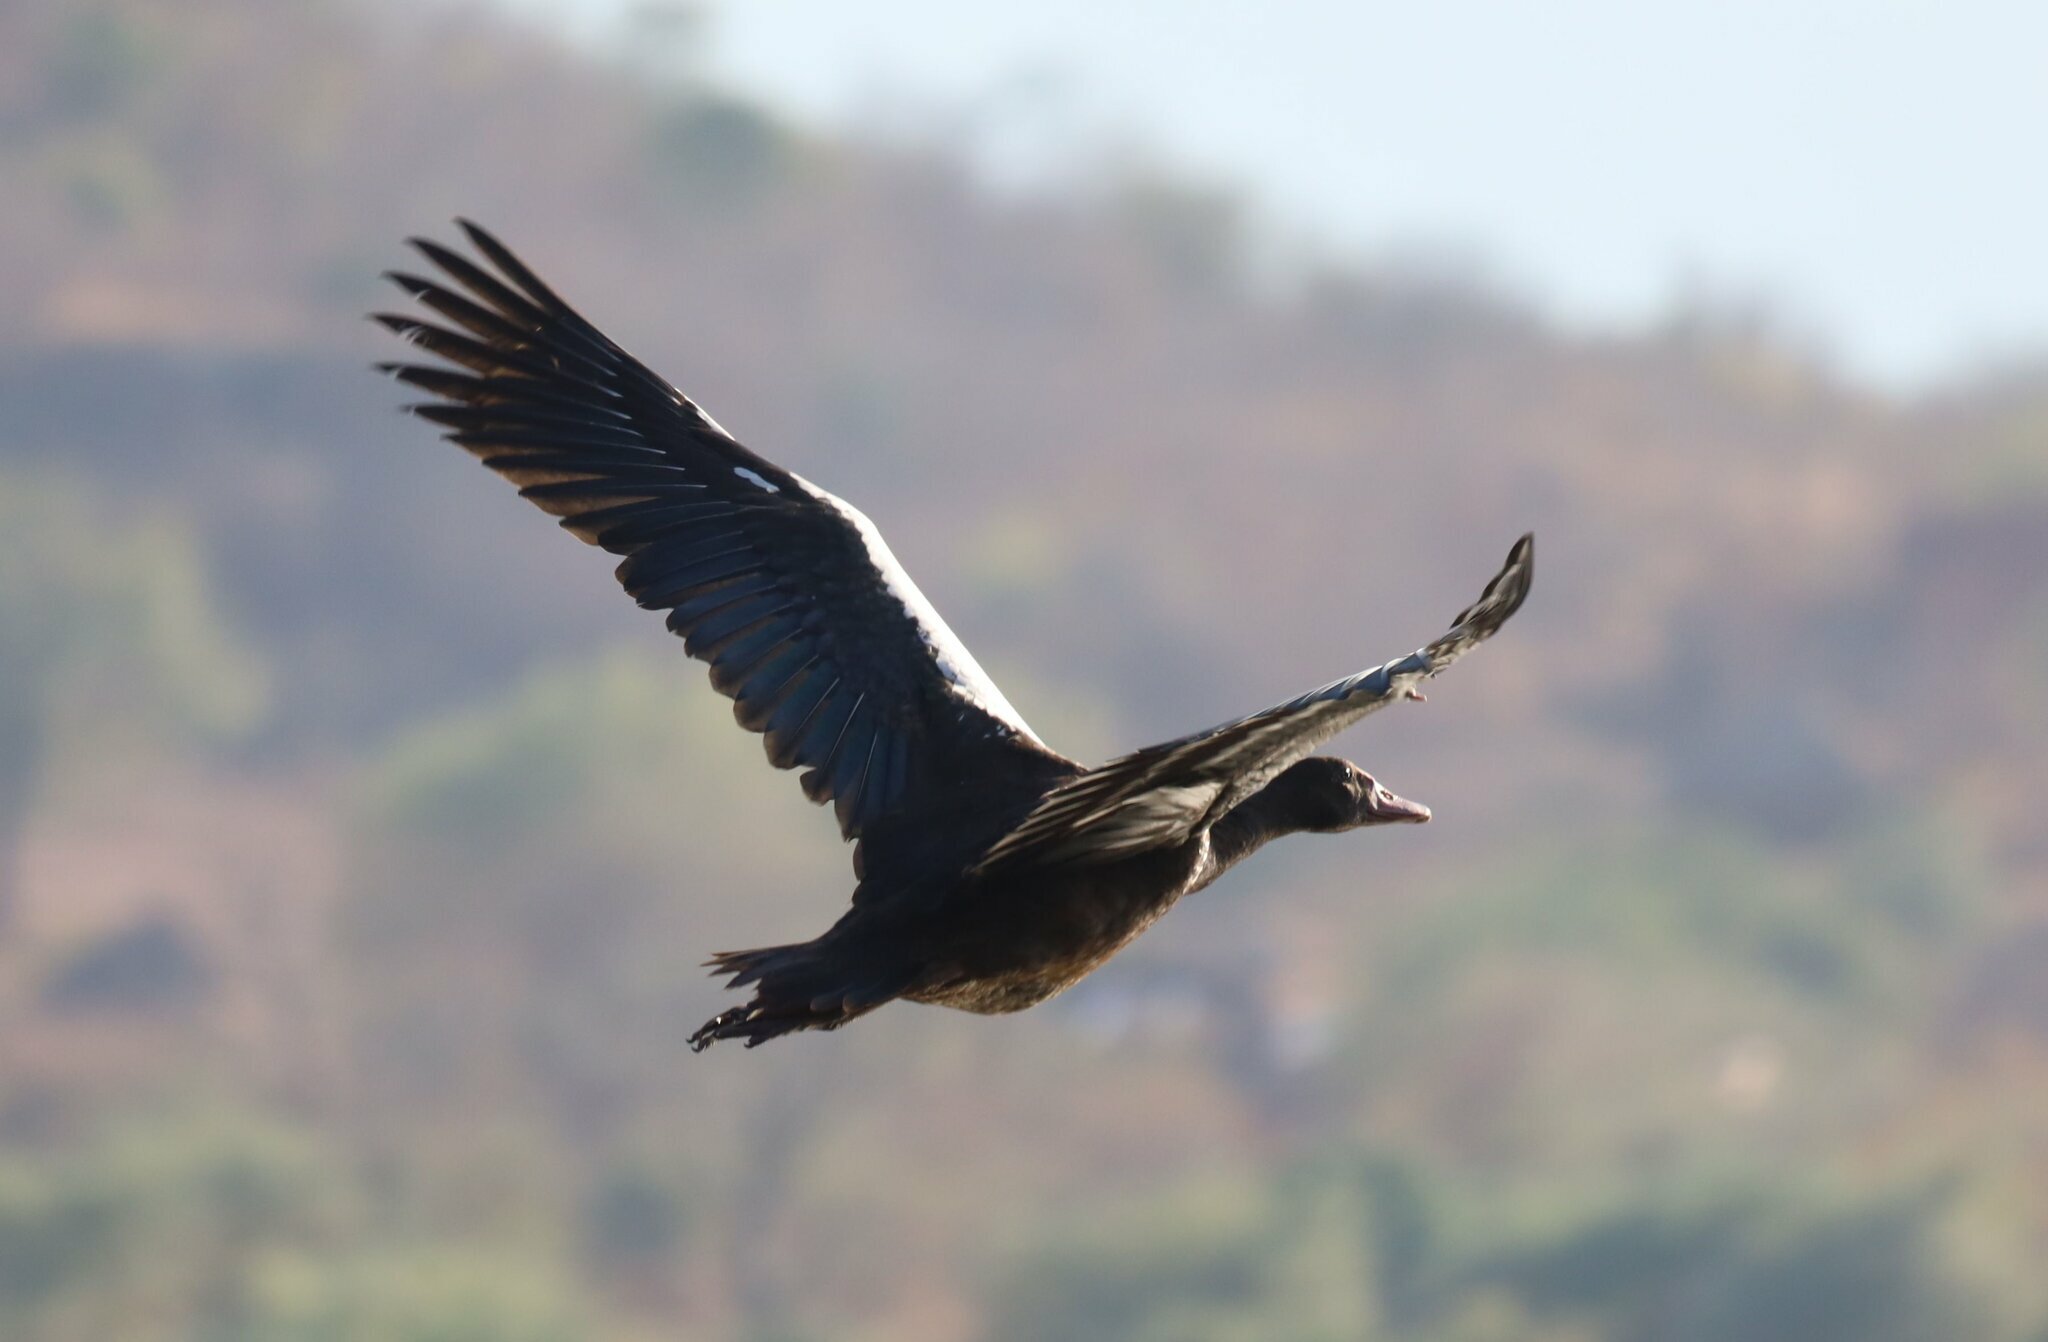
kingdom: Animalia
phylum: Chordata
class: Aves
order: Anseriformes
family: Anatidae
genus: Plectropterus
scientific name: Plectropterus gambensis
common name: Spur-winged goose
